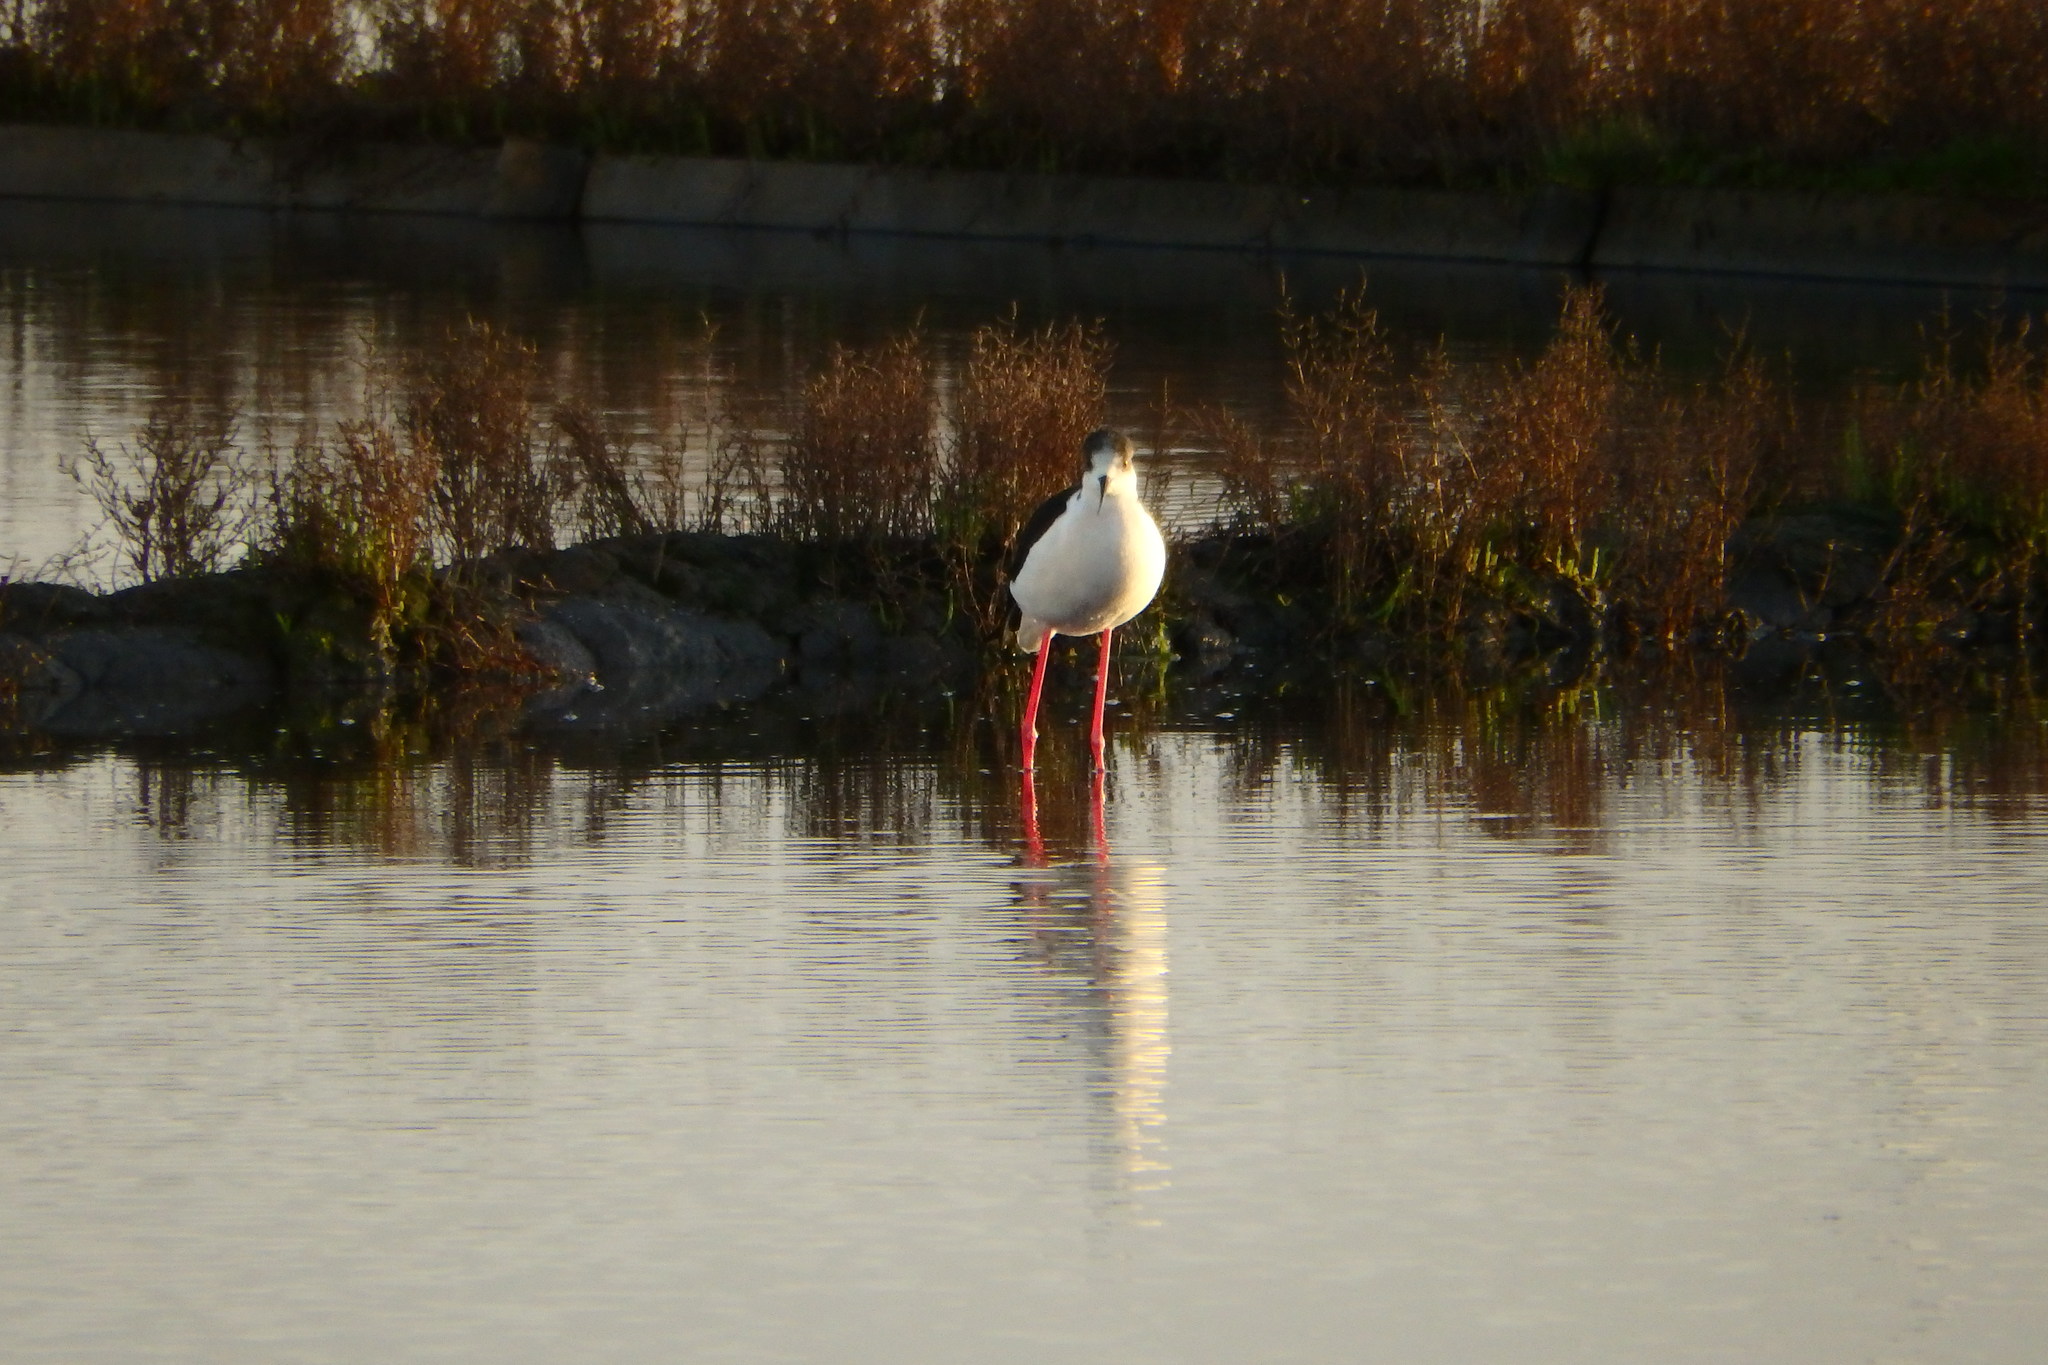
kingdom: Animalia
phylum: Chordata
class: Aves
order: Charadriiformes
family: Recurvirostridae
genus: Himantopus
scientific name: Himantopus himantopus
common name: Black-winged stilt
